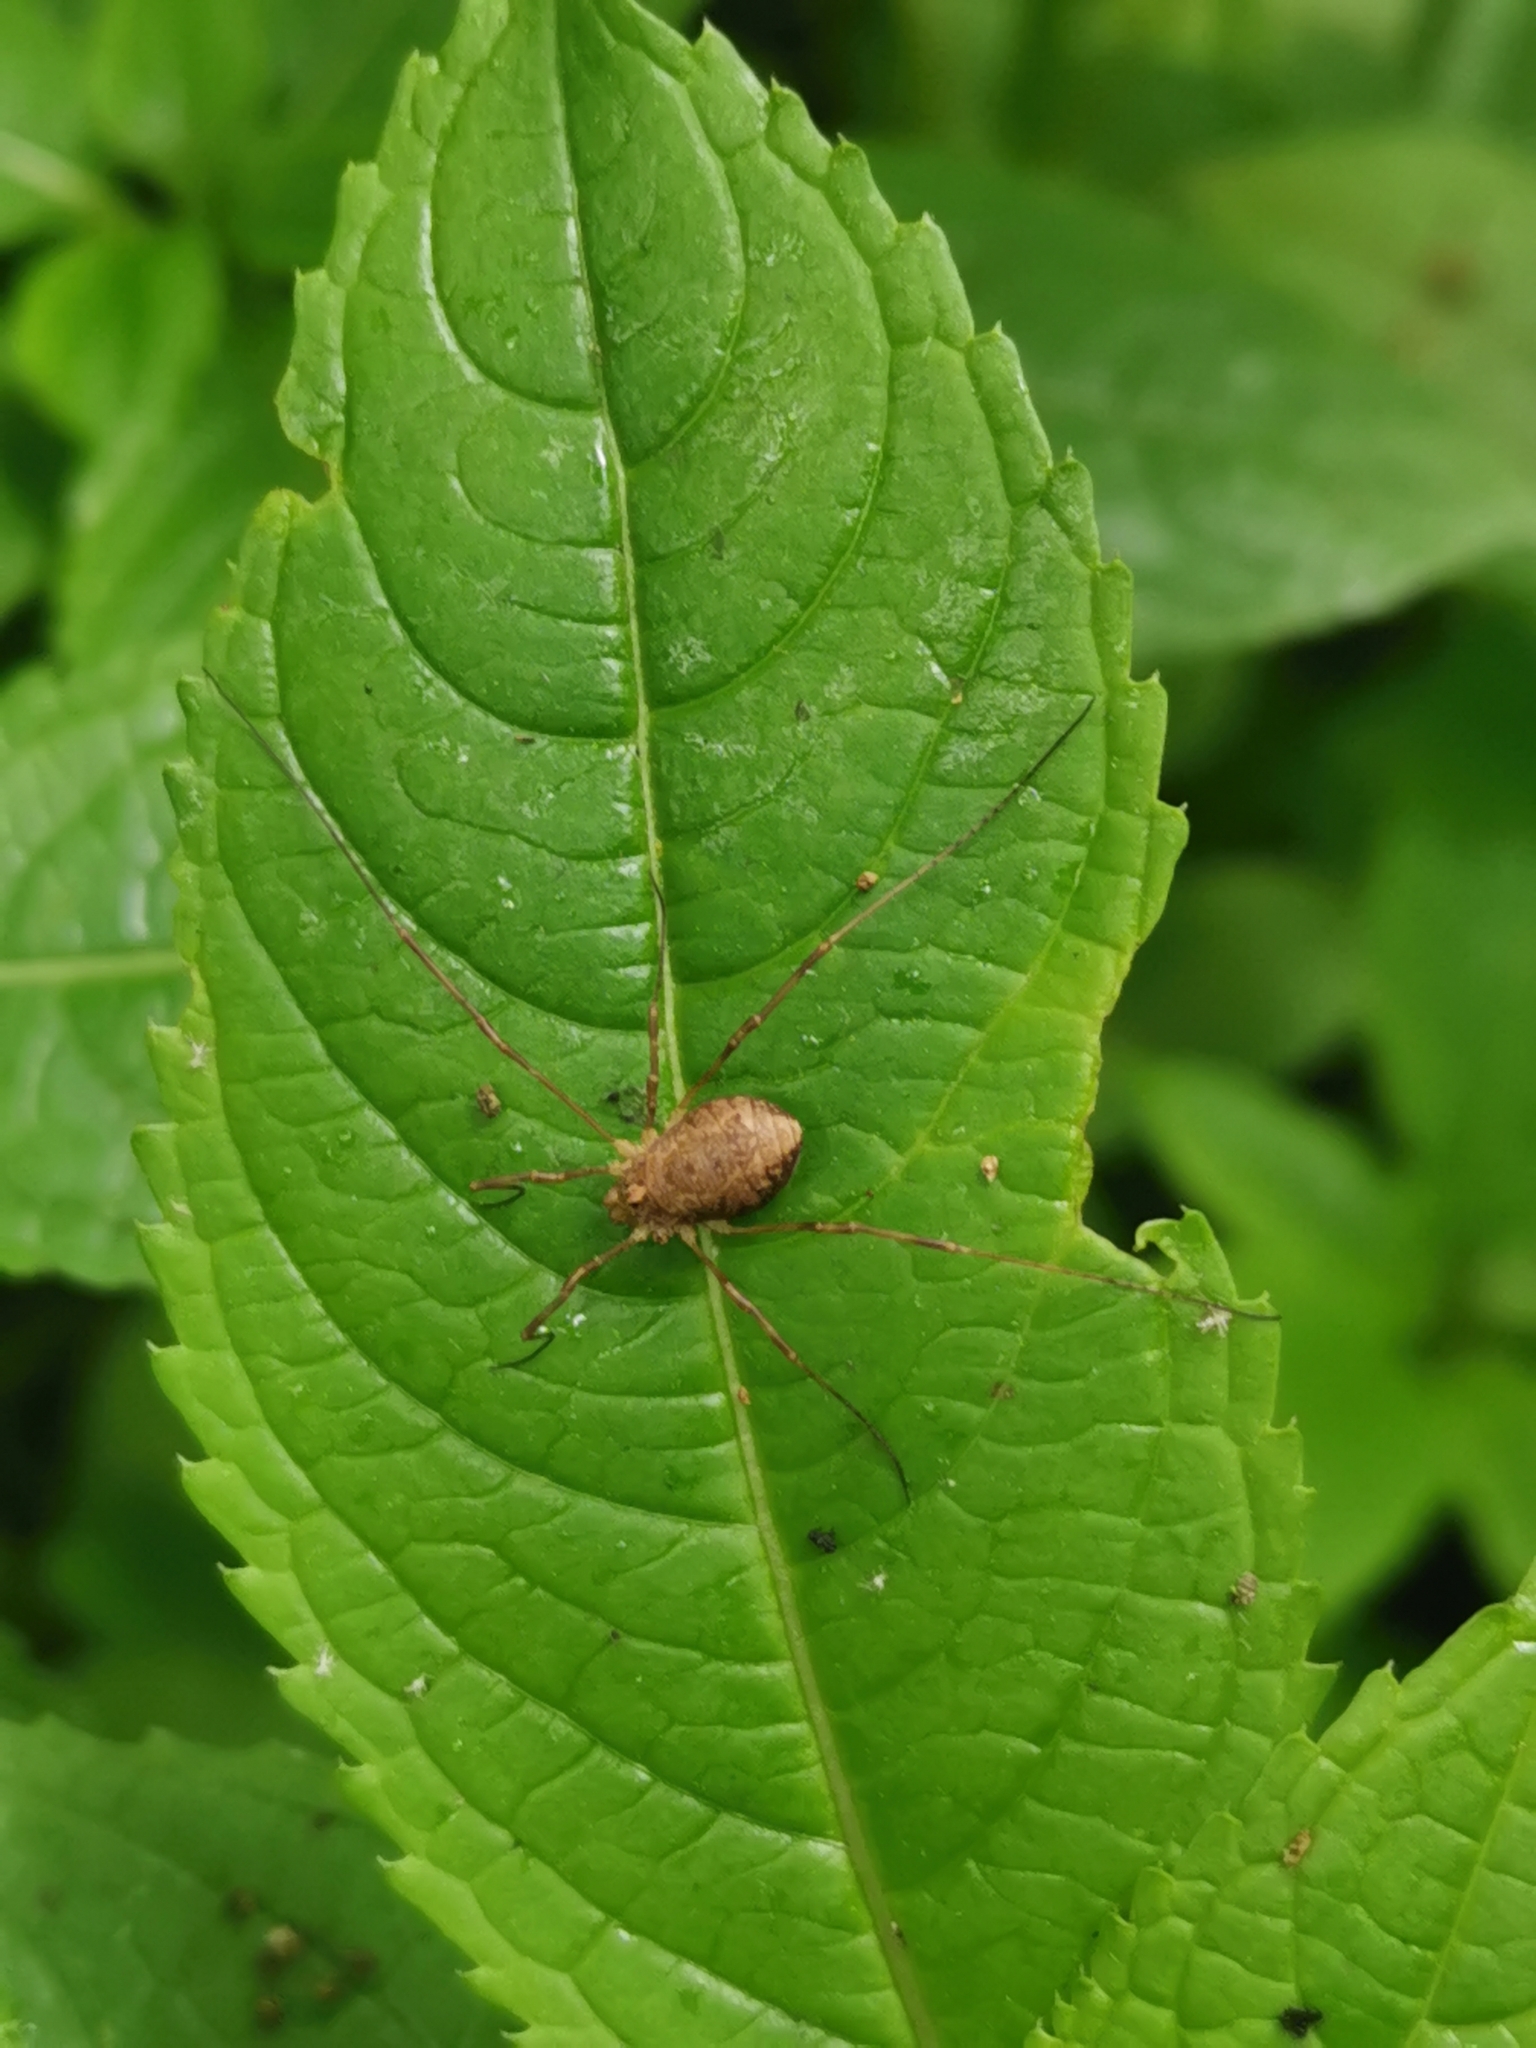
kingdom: Animalia
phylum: Arthropoda
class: Arachnida
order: Opiliones
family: Phalangiidae
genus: Rilaena
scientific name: Rilaena triangularis
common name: Spring harvestman
